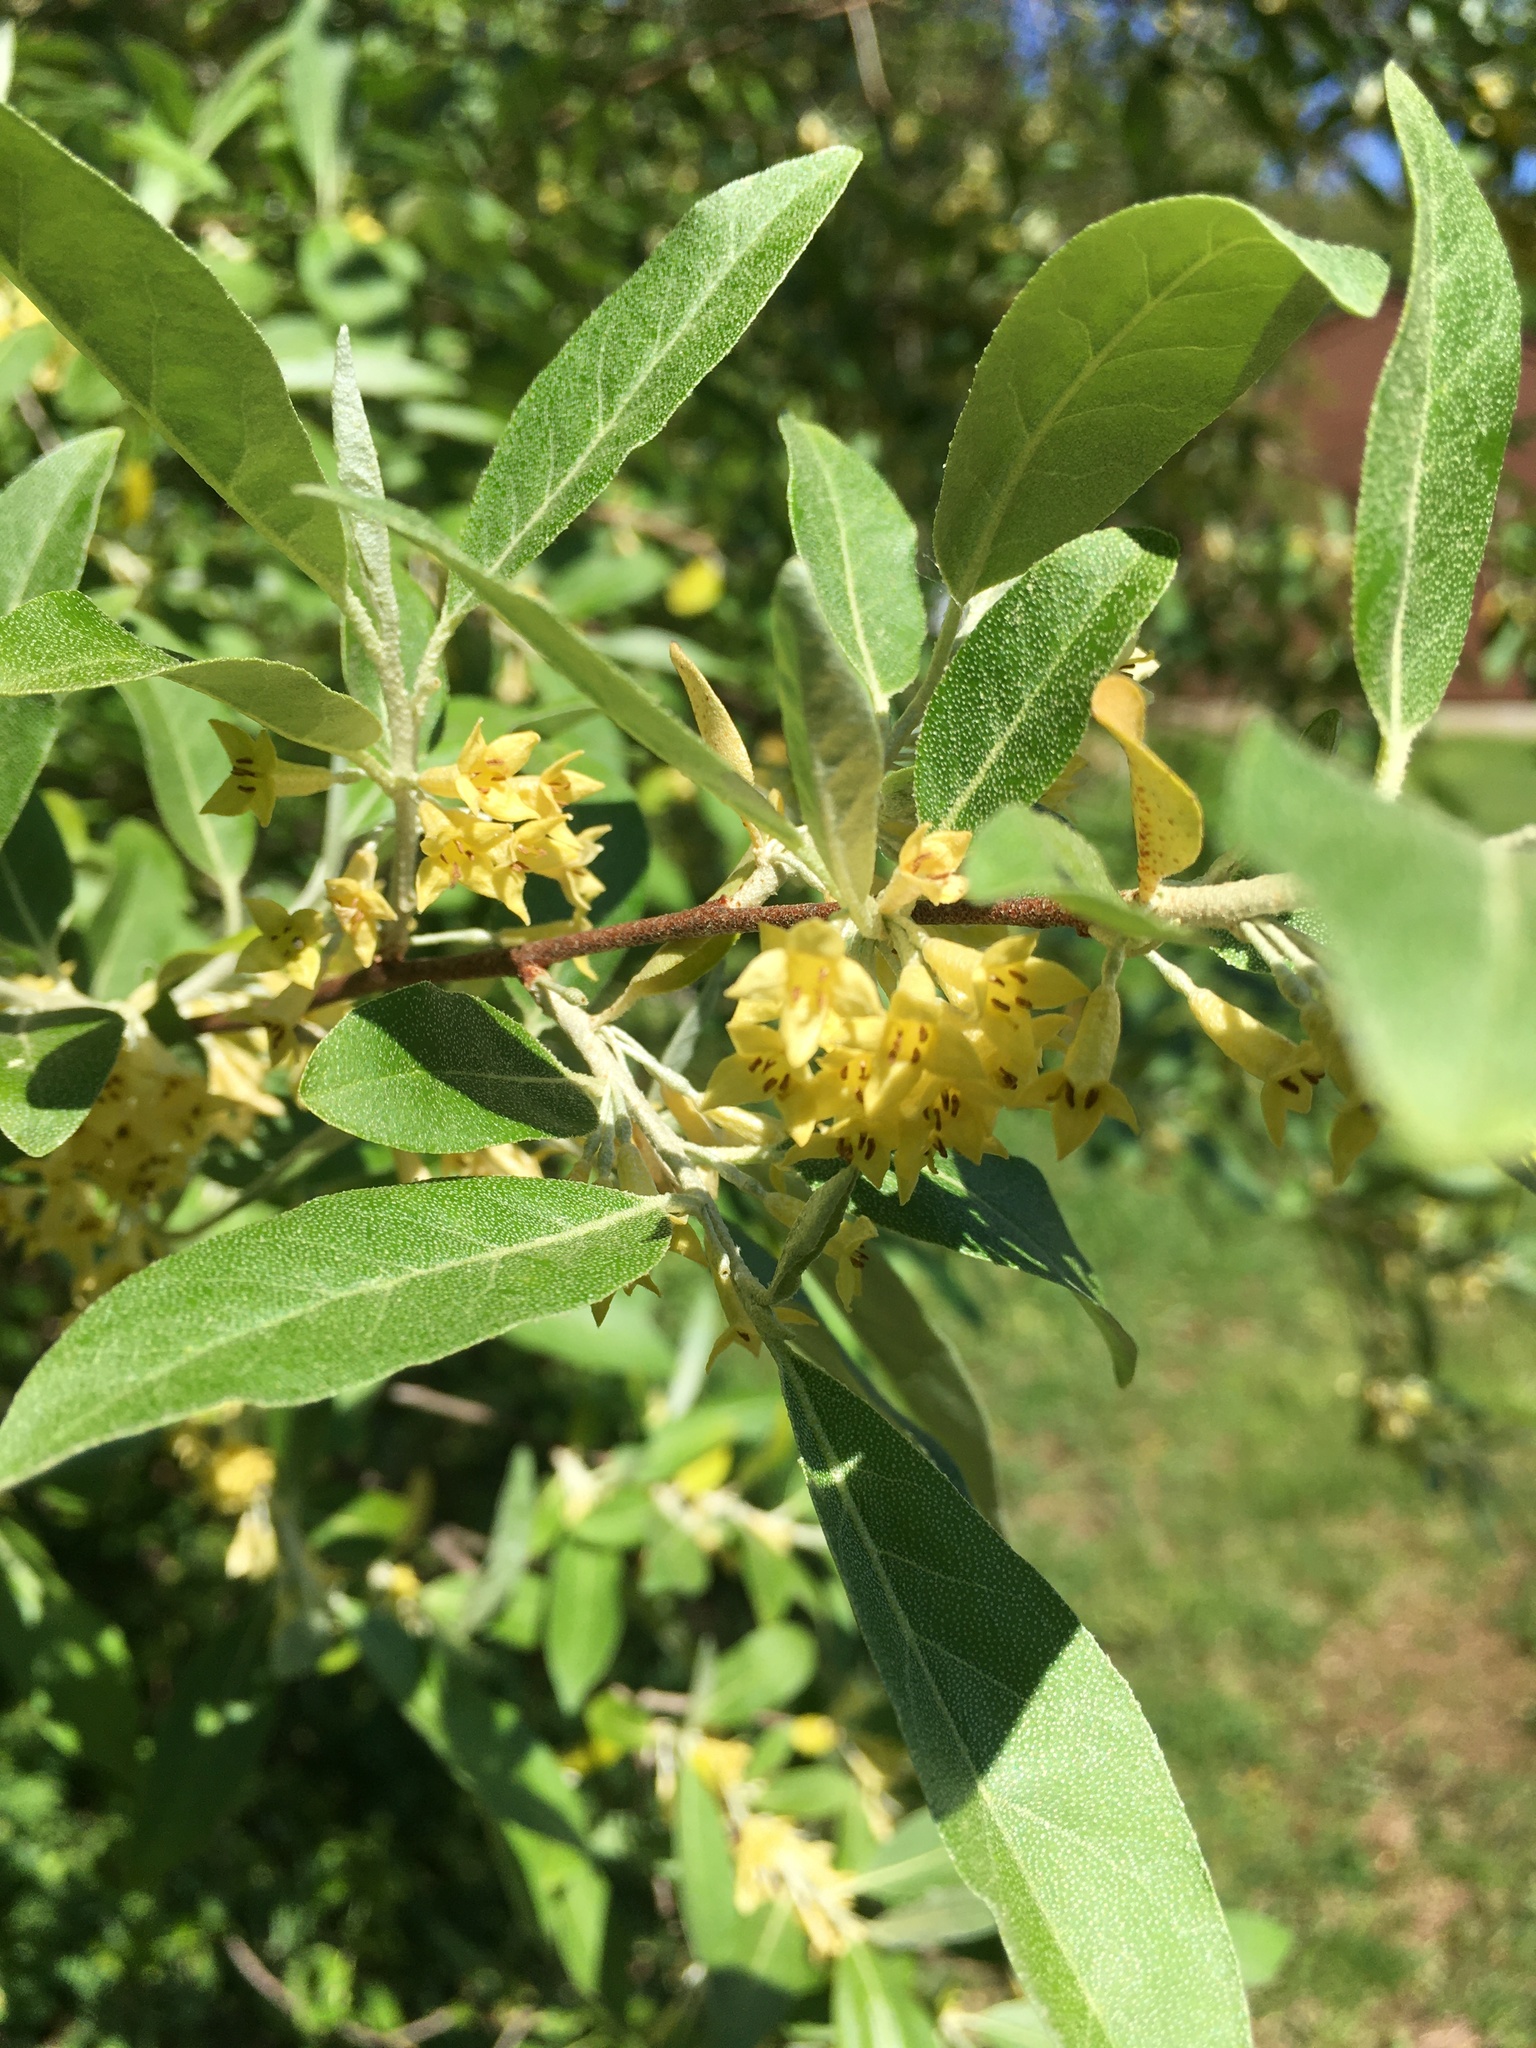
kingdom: Plantae
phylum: Tracheophyta
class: Magnoliopsida
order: Rosales
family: Elaeagnaceae
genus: Elaeagnus
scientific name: Elaeagnus umbellata
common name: Autumn olive
